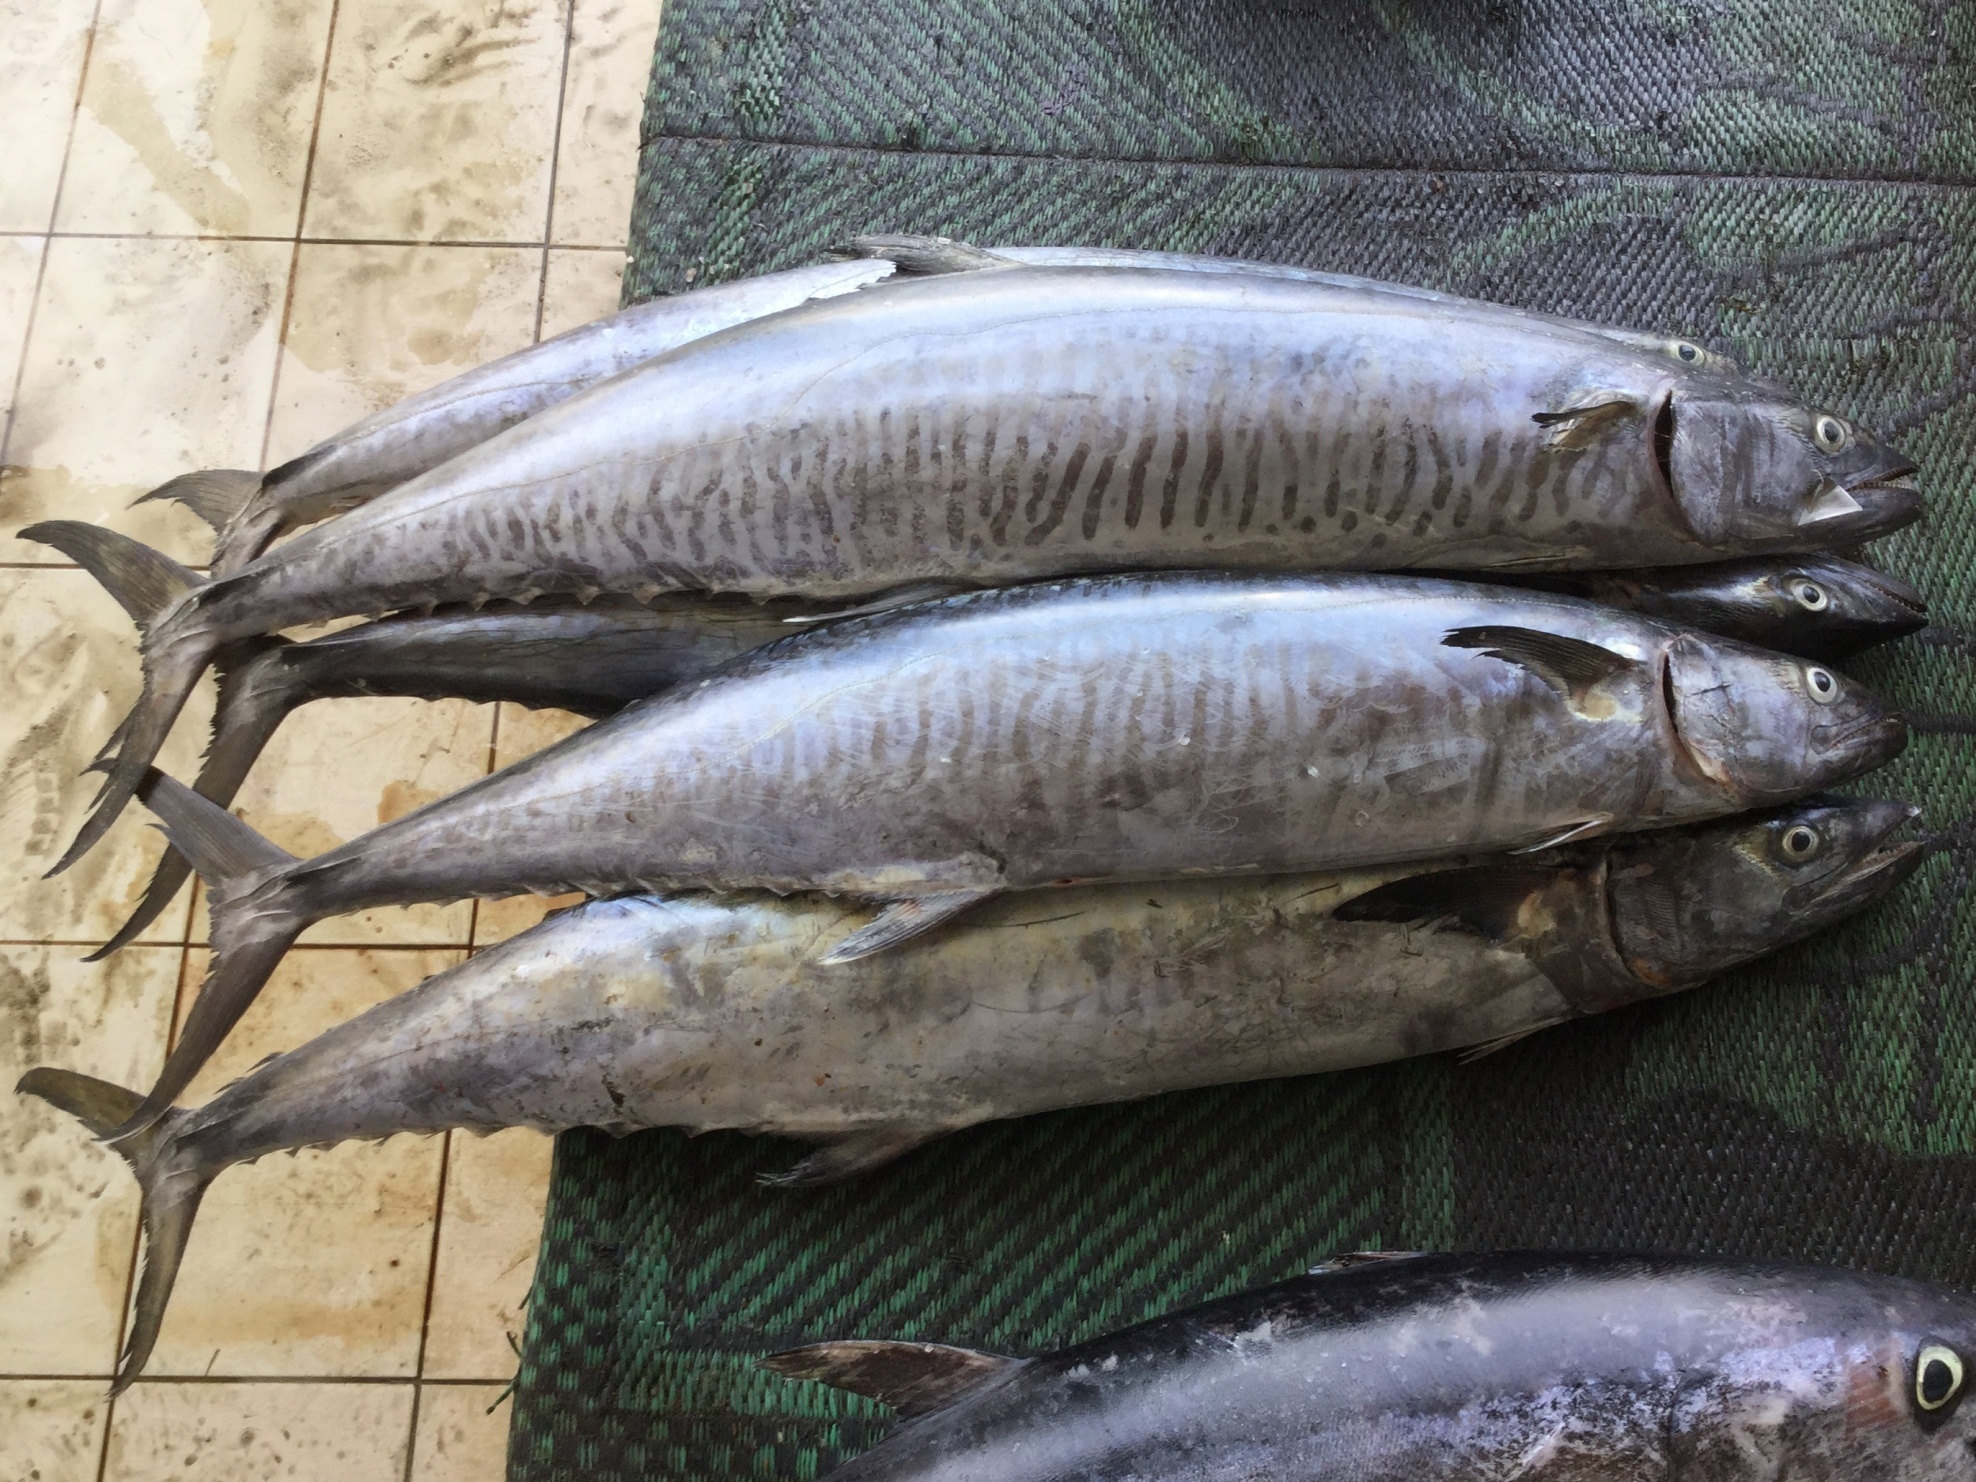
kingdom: Animalia
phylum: Chordata
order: Perciformes
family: Scombridae
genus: Scomberomorus
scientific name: Scomberomorus commerson
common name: Narrow-barred spanish mackerel
